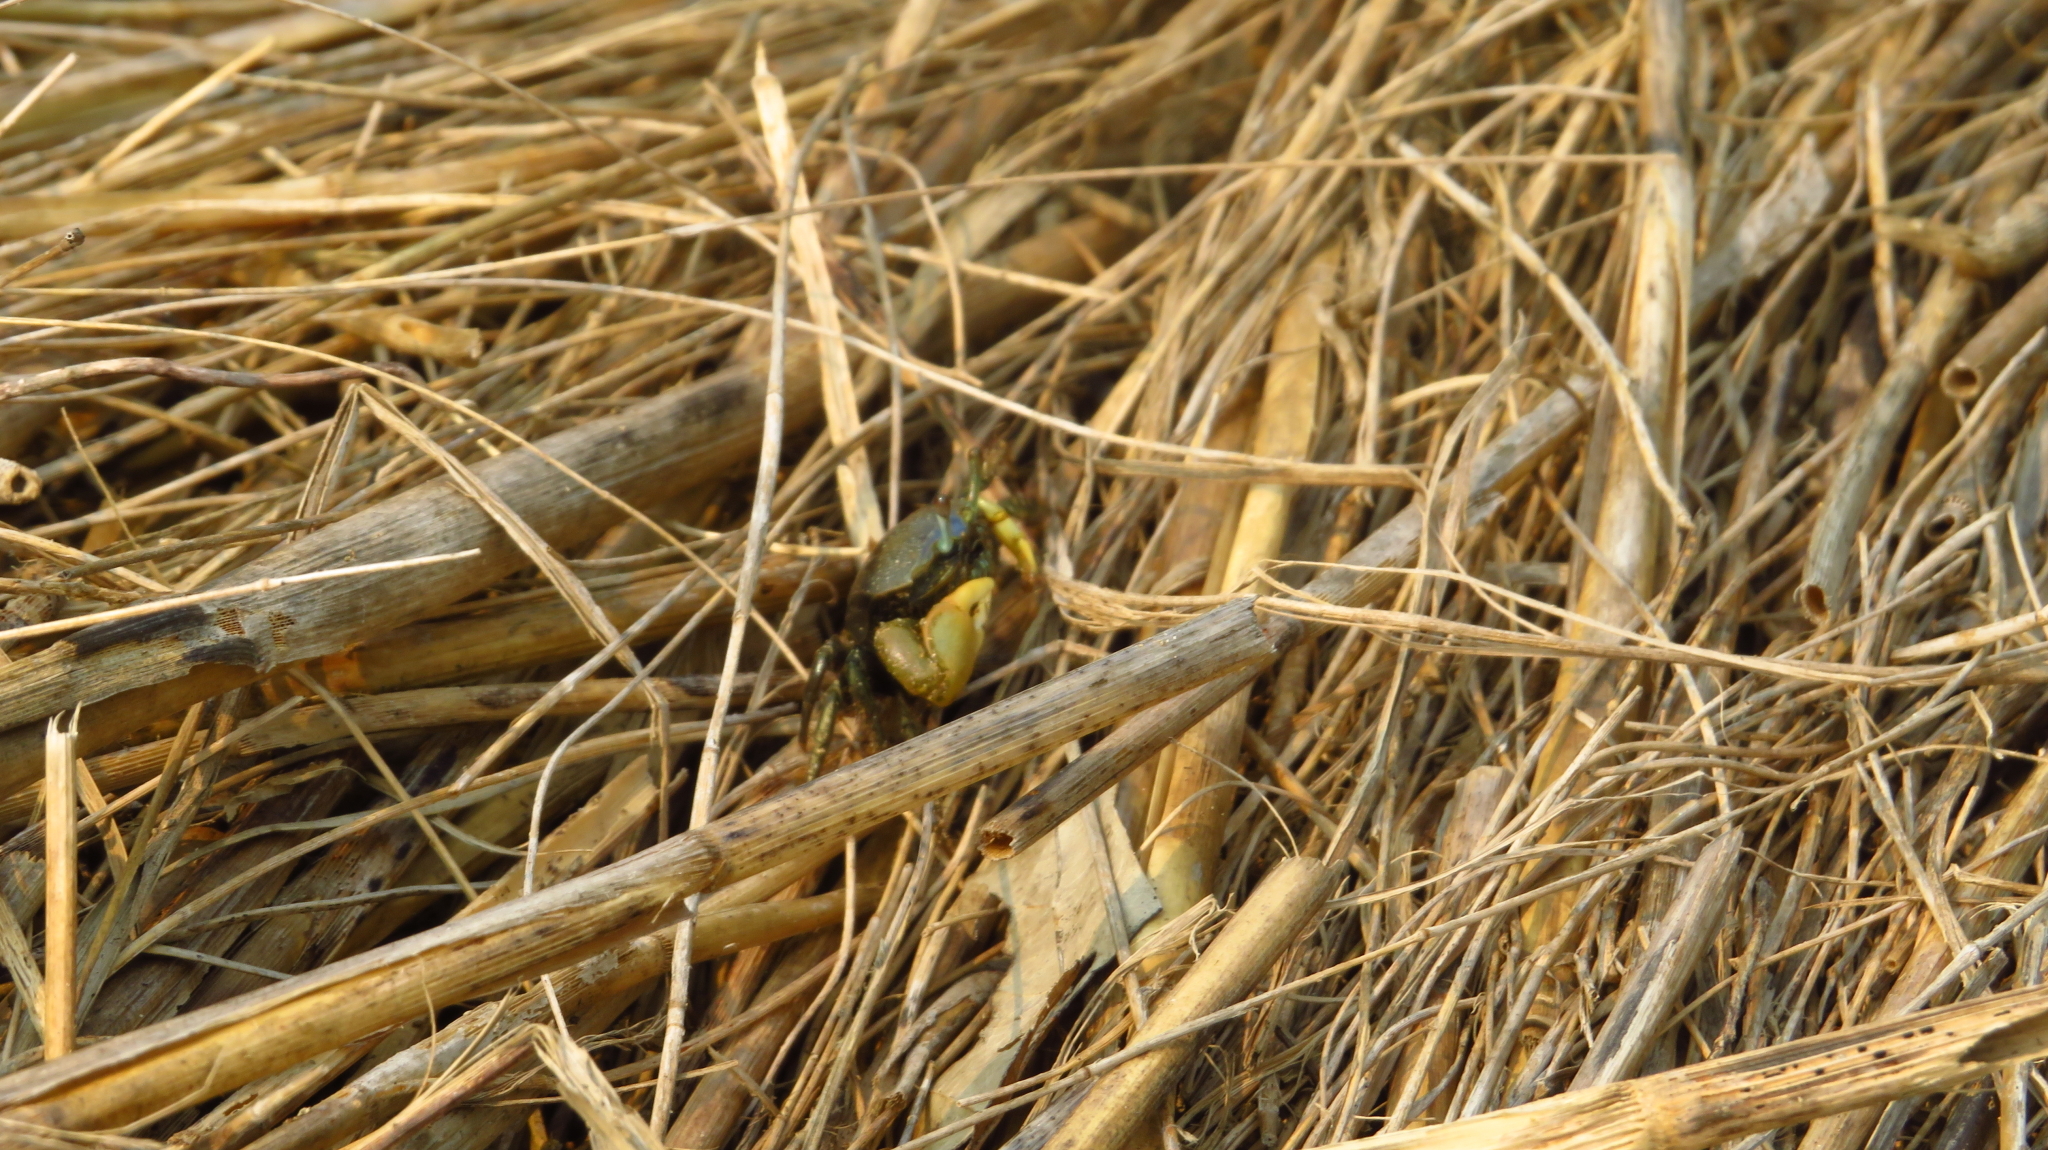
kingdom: Animalia
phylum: Arthropoda
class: Malacostraca
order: Decapoda
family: Ocypodidae
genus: Minuca
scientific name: Minuca pugnax
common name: Mud fiddler crab
